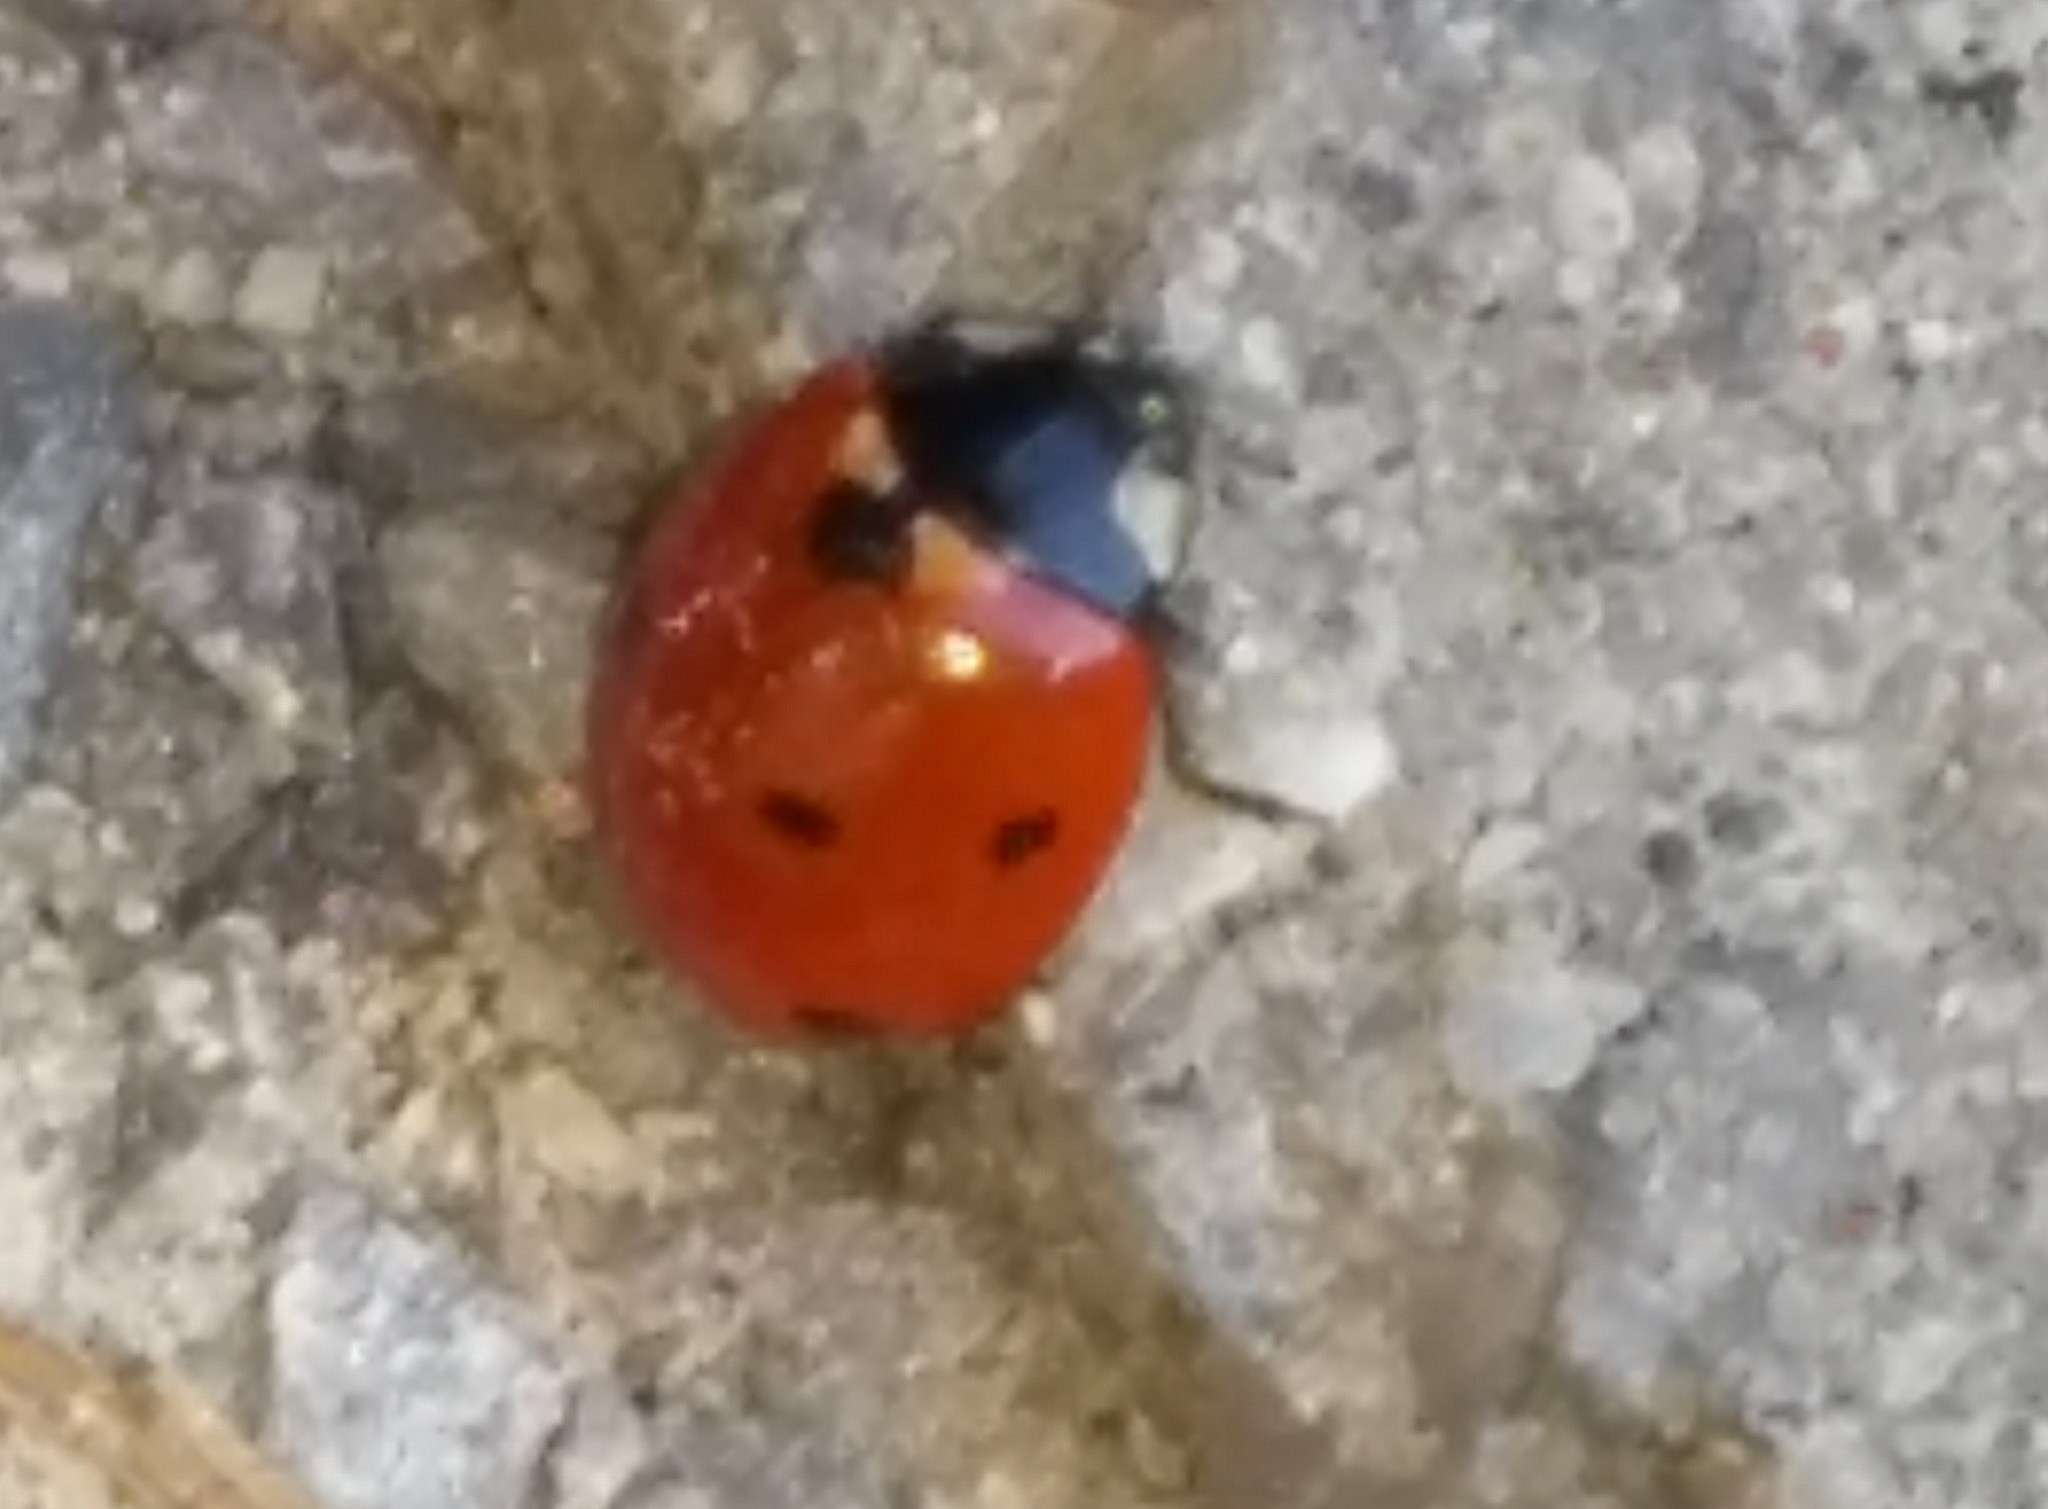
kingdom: Animalia
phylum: Arthropoda
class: Insecta
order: Coleoptera
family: Coccinellidae
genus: Coccinella
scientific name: Coccinella septempunctata
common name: Sevenspotted lady beetle
